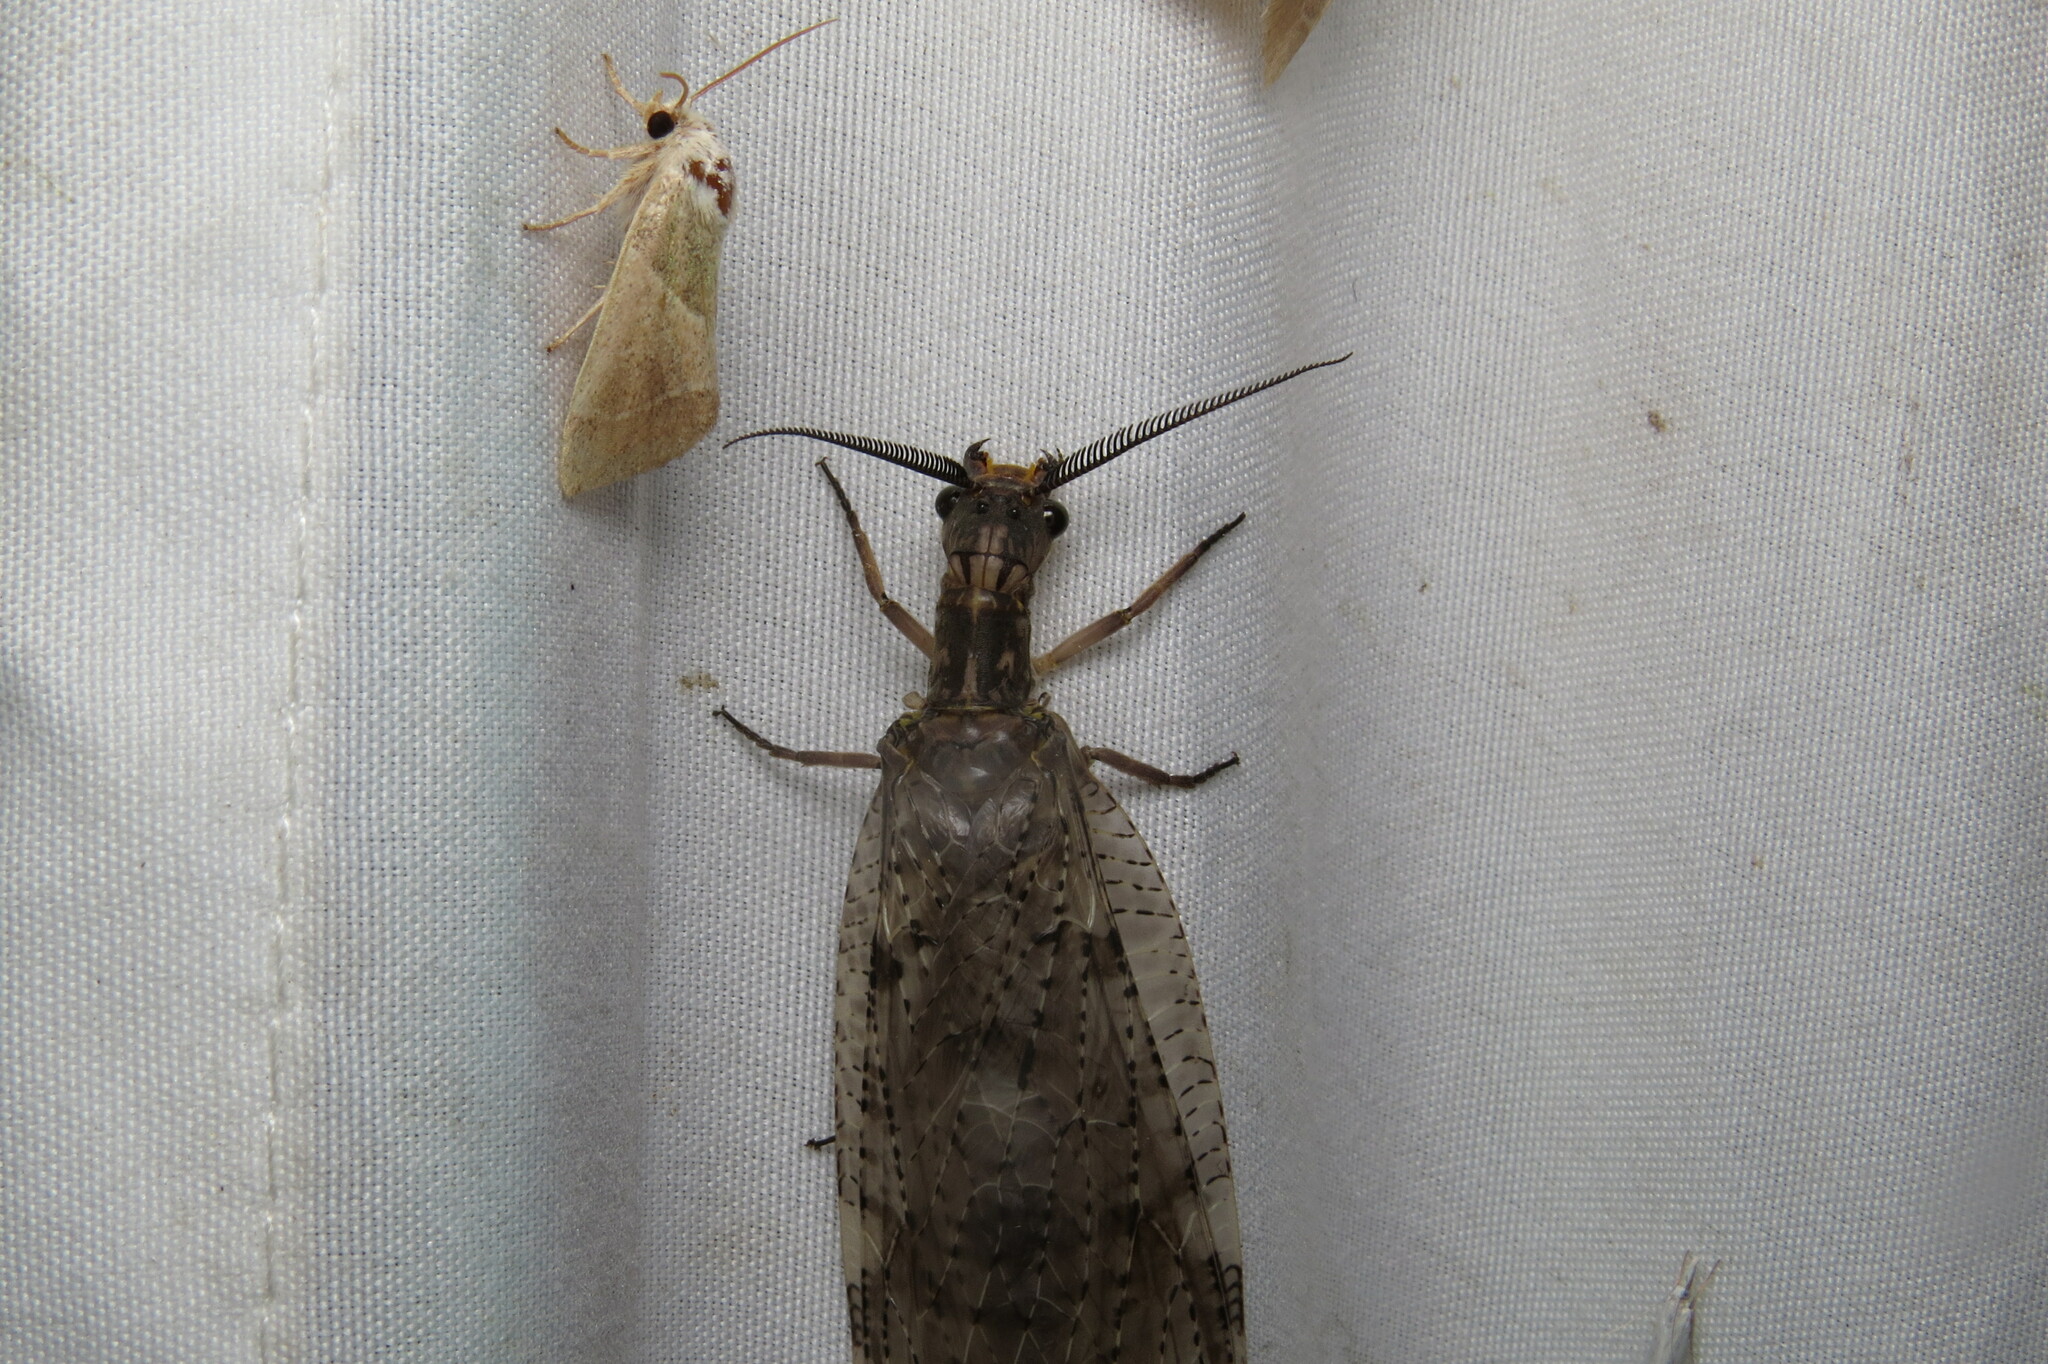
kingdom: Animalia
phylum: Arthropoda
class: Insecta
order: Megaloptera
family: Corydalidae
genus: Chauliodes
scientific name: Chauliodes pectinicornis
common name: Summer fishfly
